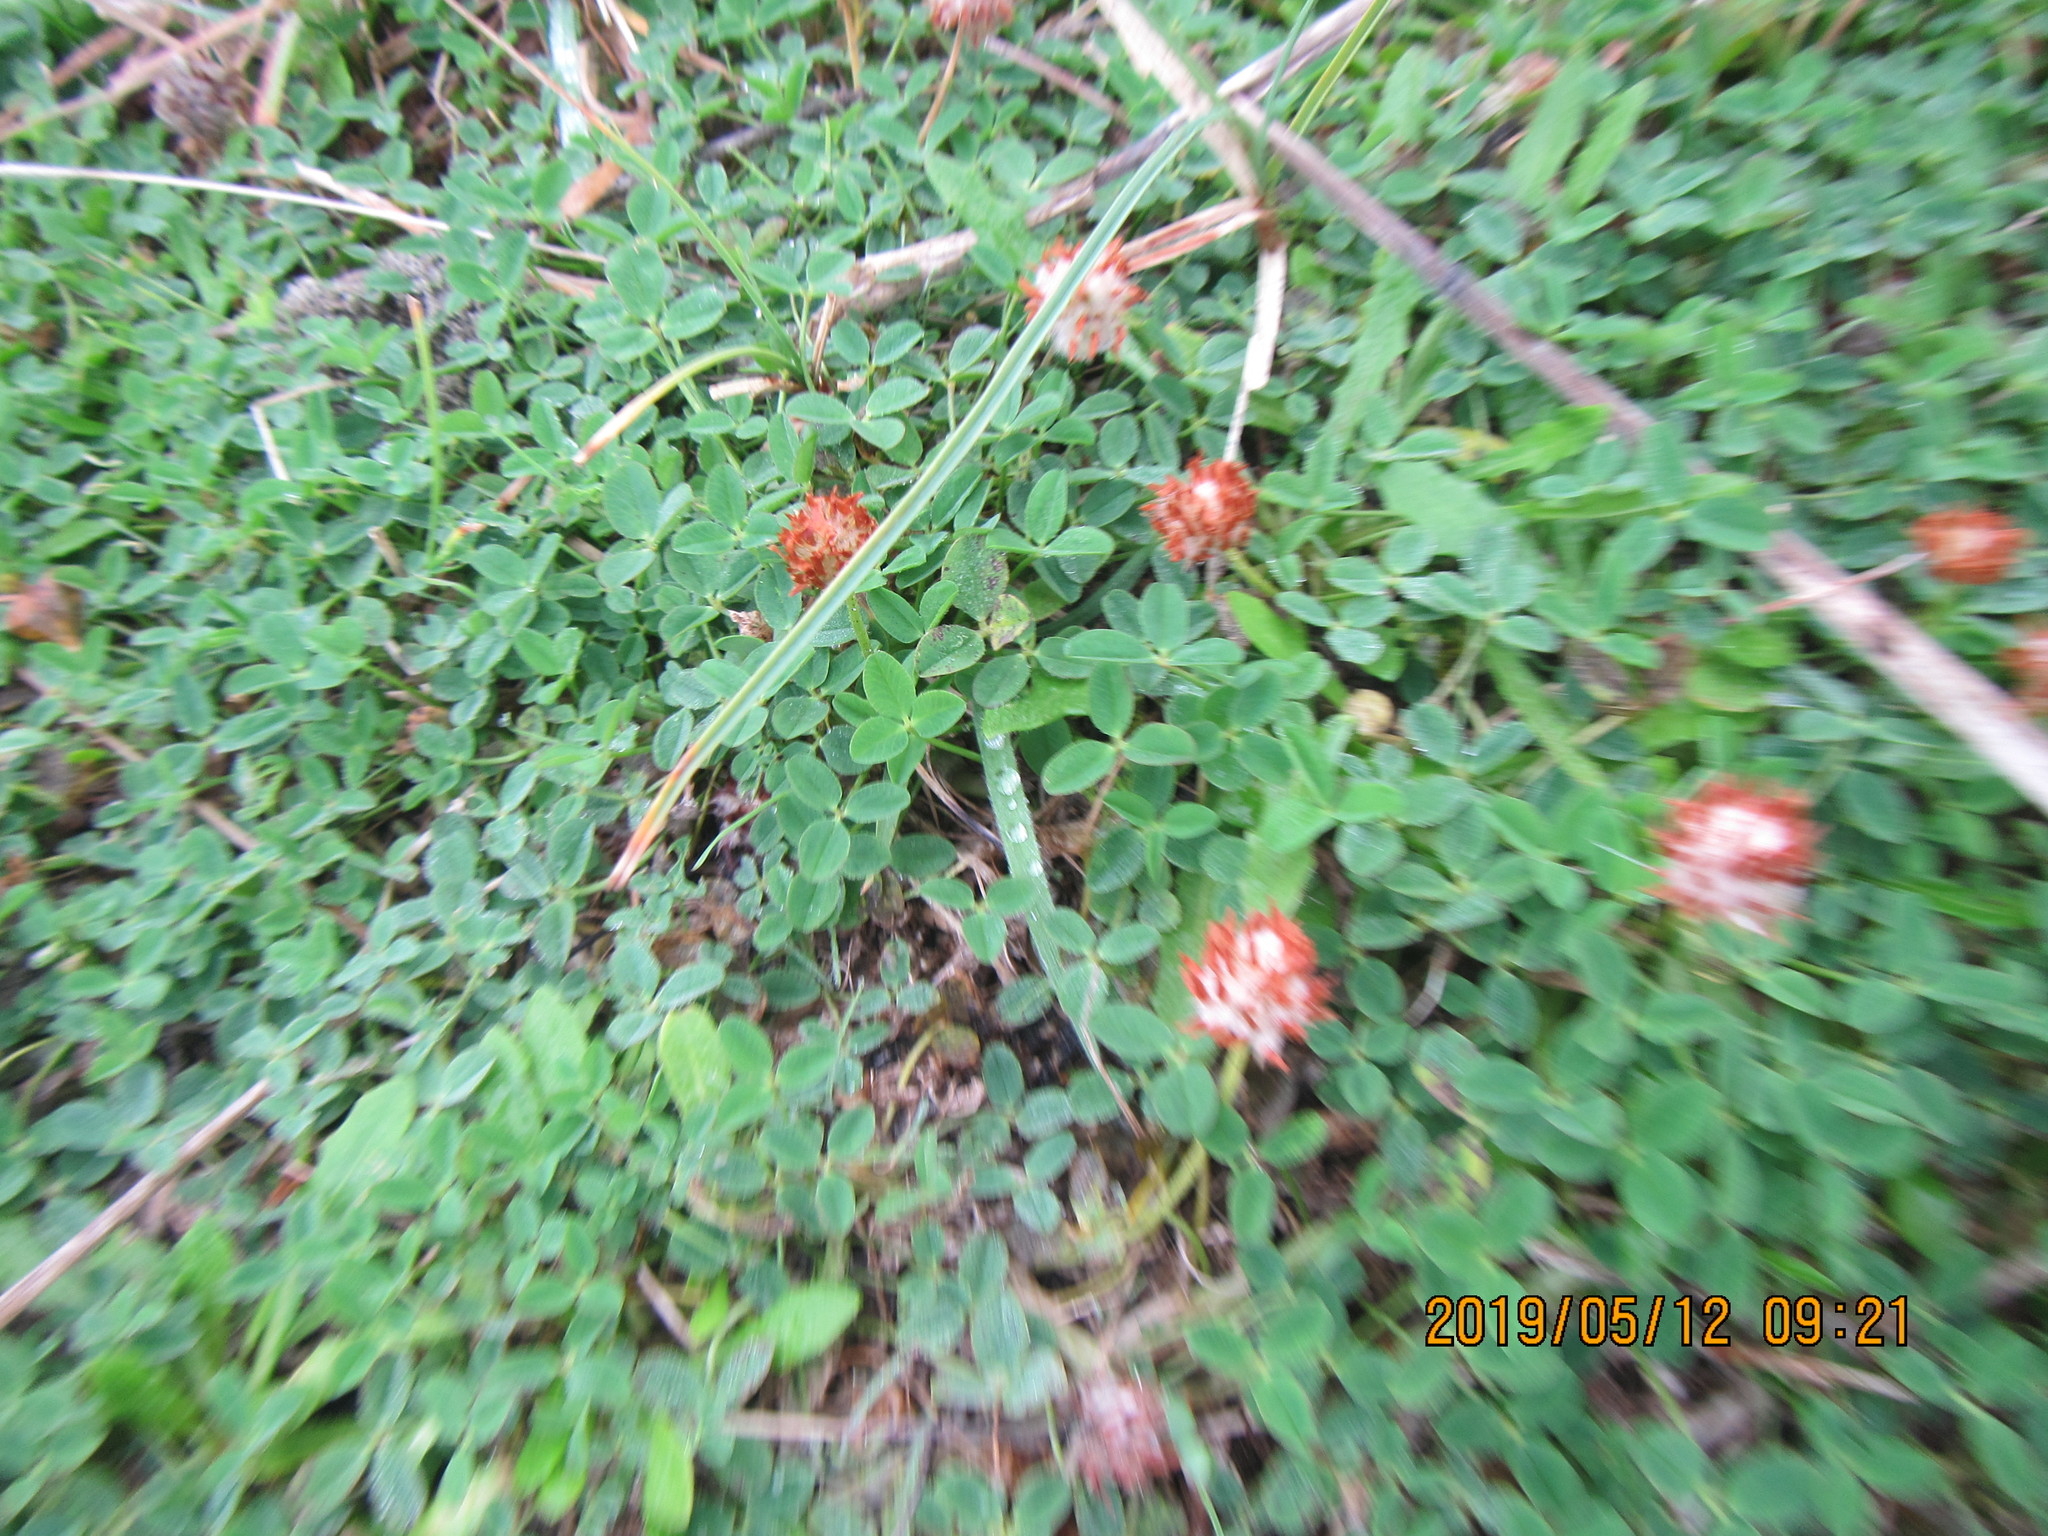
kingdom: Plantae
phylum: Tracheophyta
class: Magnoliopsida
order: Fabales
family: Fabaceae
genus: Trifolium
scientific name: Trifolium fragiferum
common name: Strawberry clover
